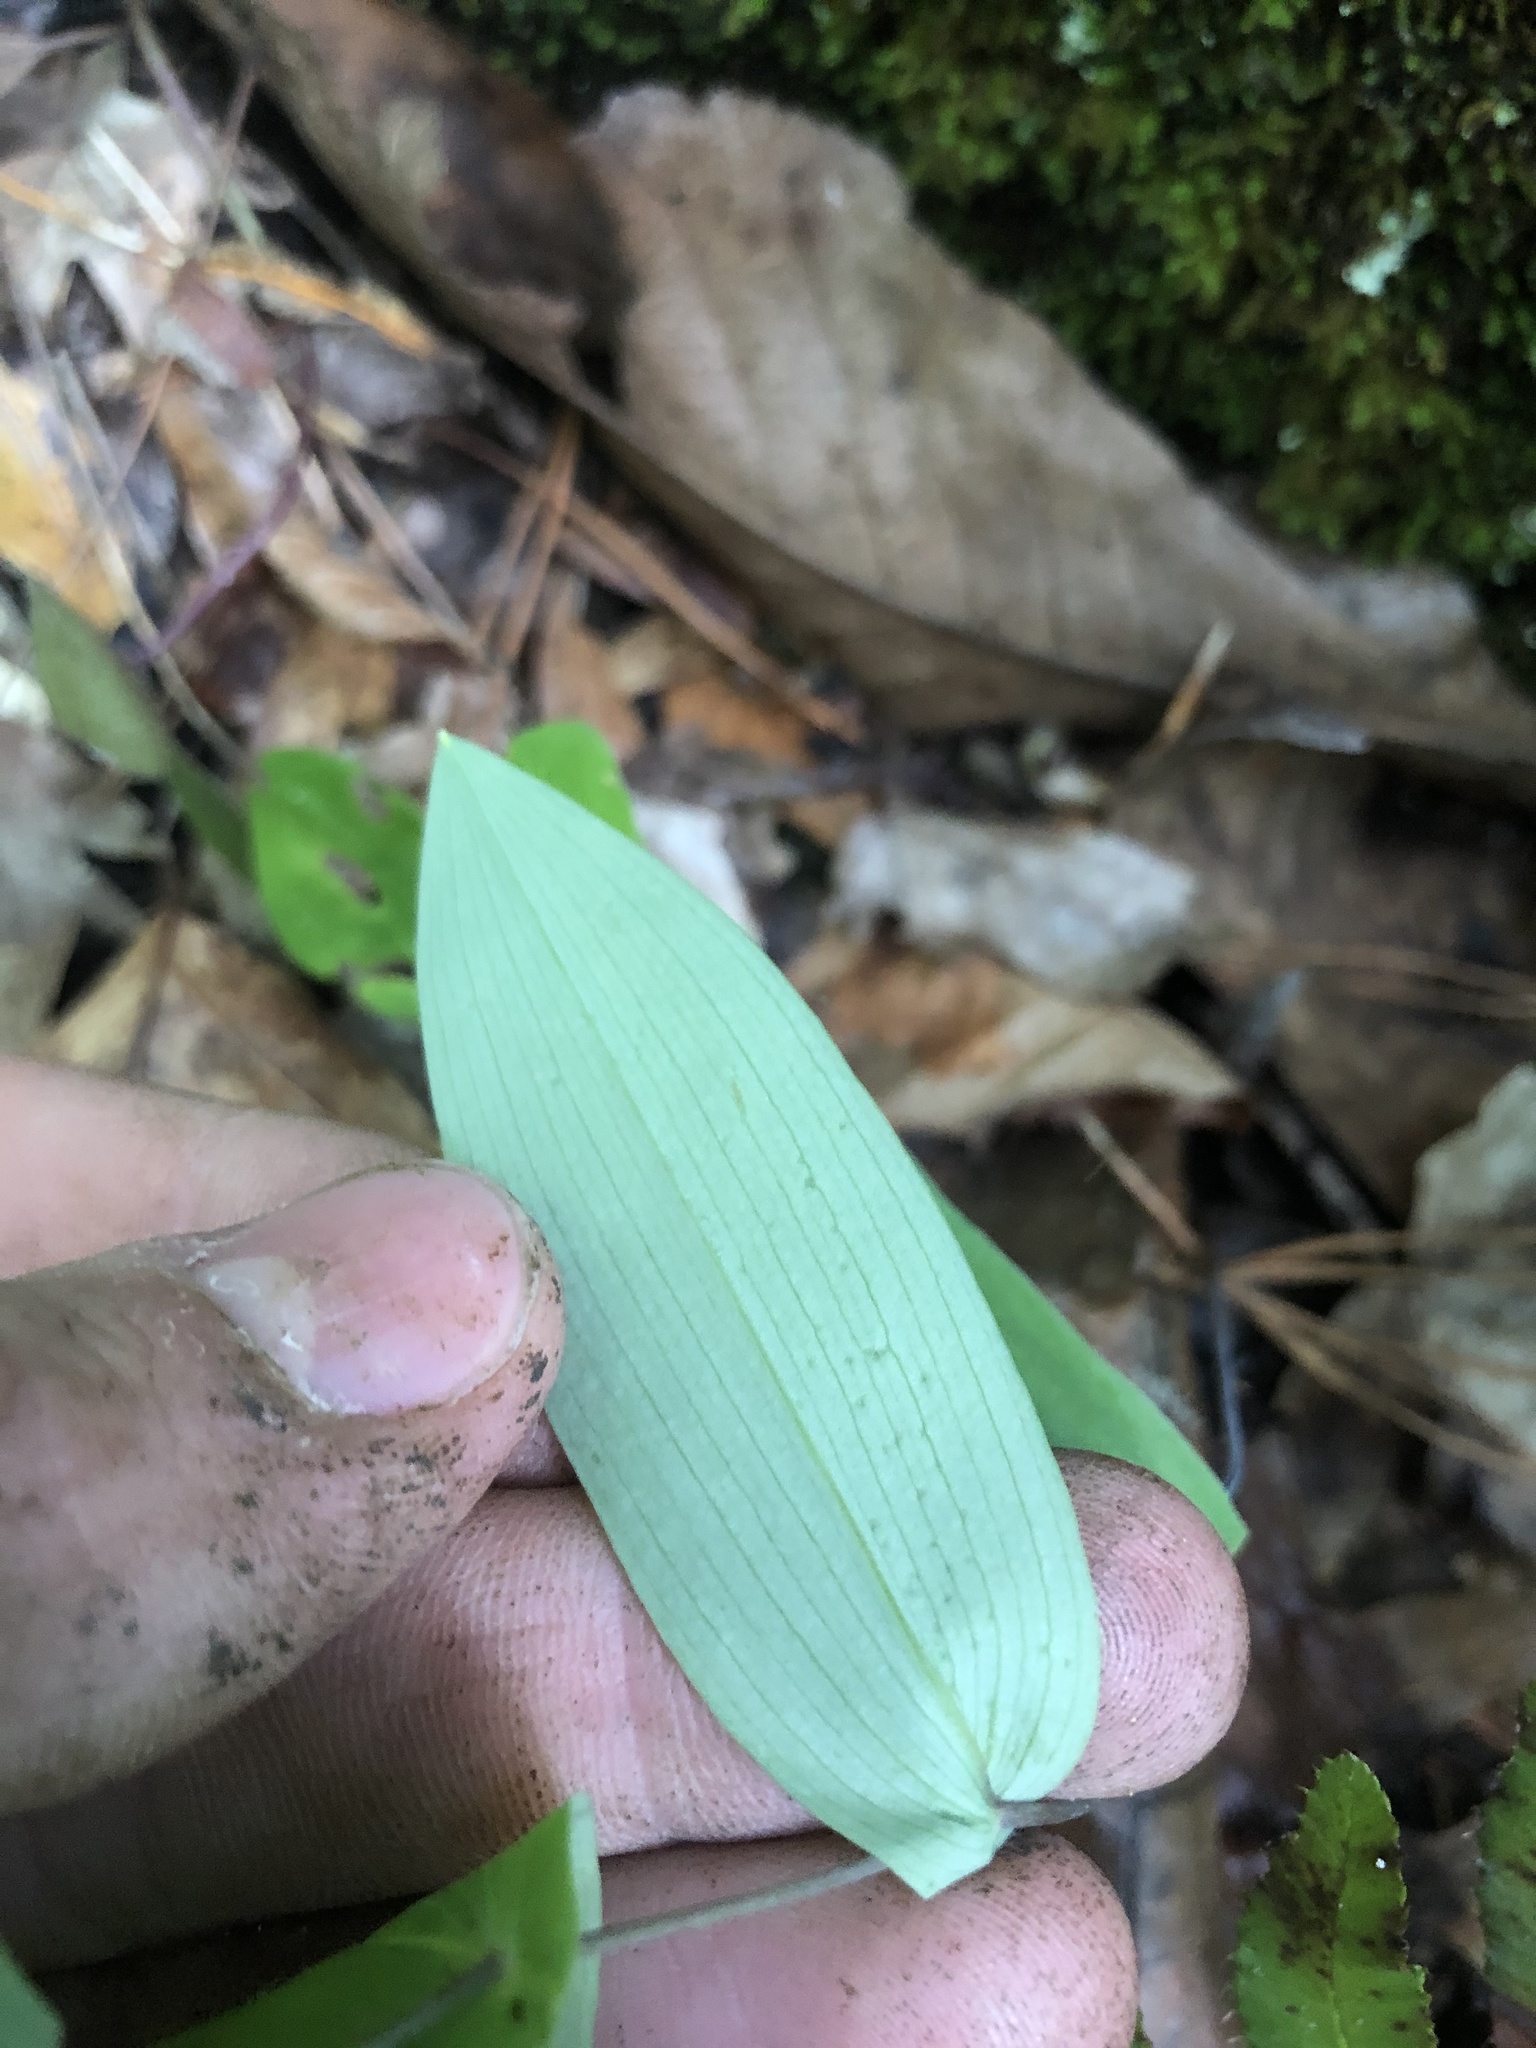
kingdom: Plantae
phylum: Tracheophyta
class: Liliopsida
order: Liliales
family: Colchicaceae
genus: Uvularia
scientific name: Uvularia perfoliata
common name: Perfoliate bellwort
